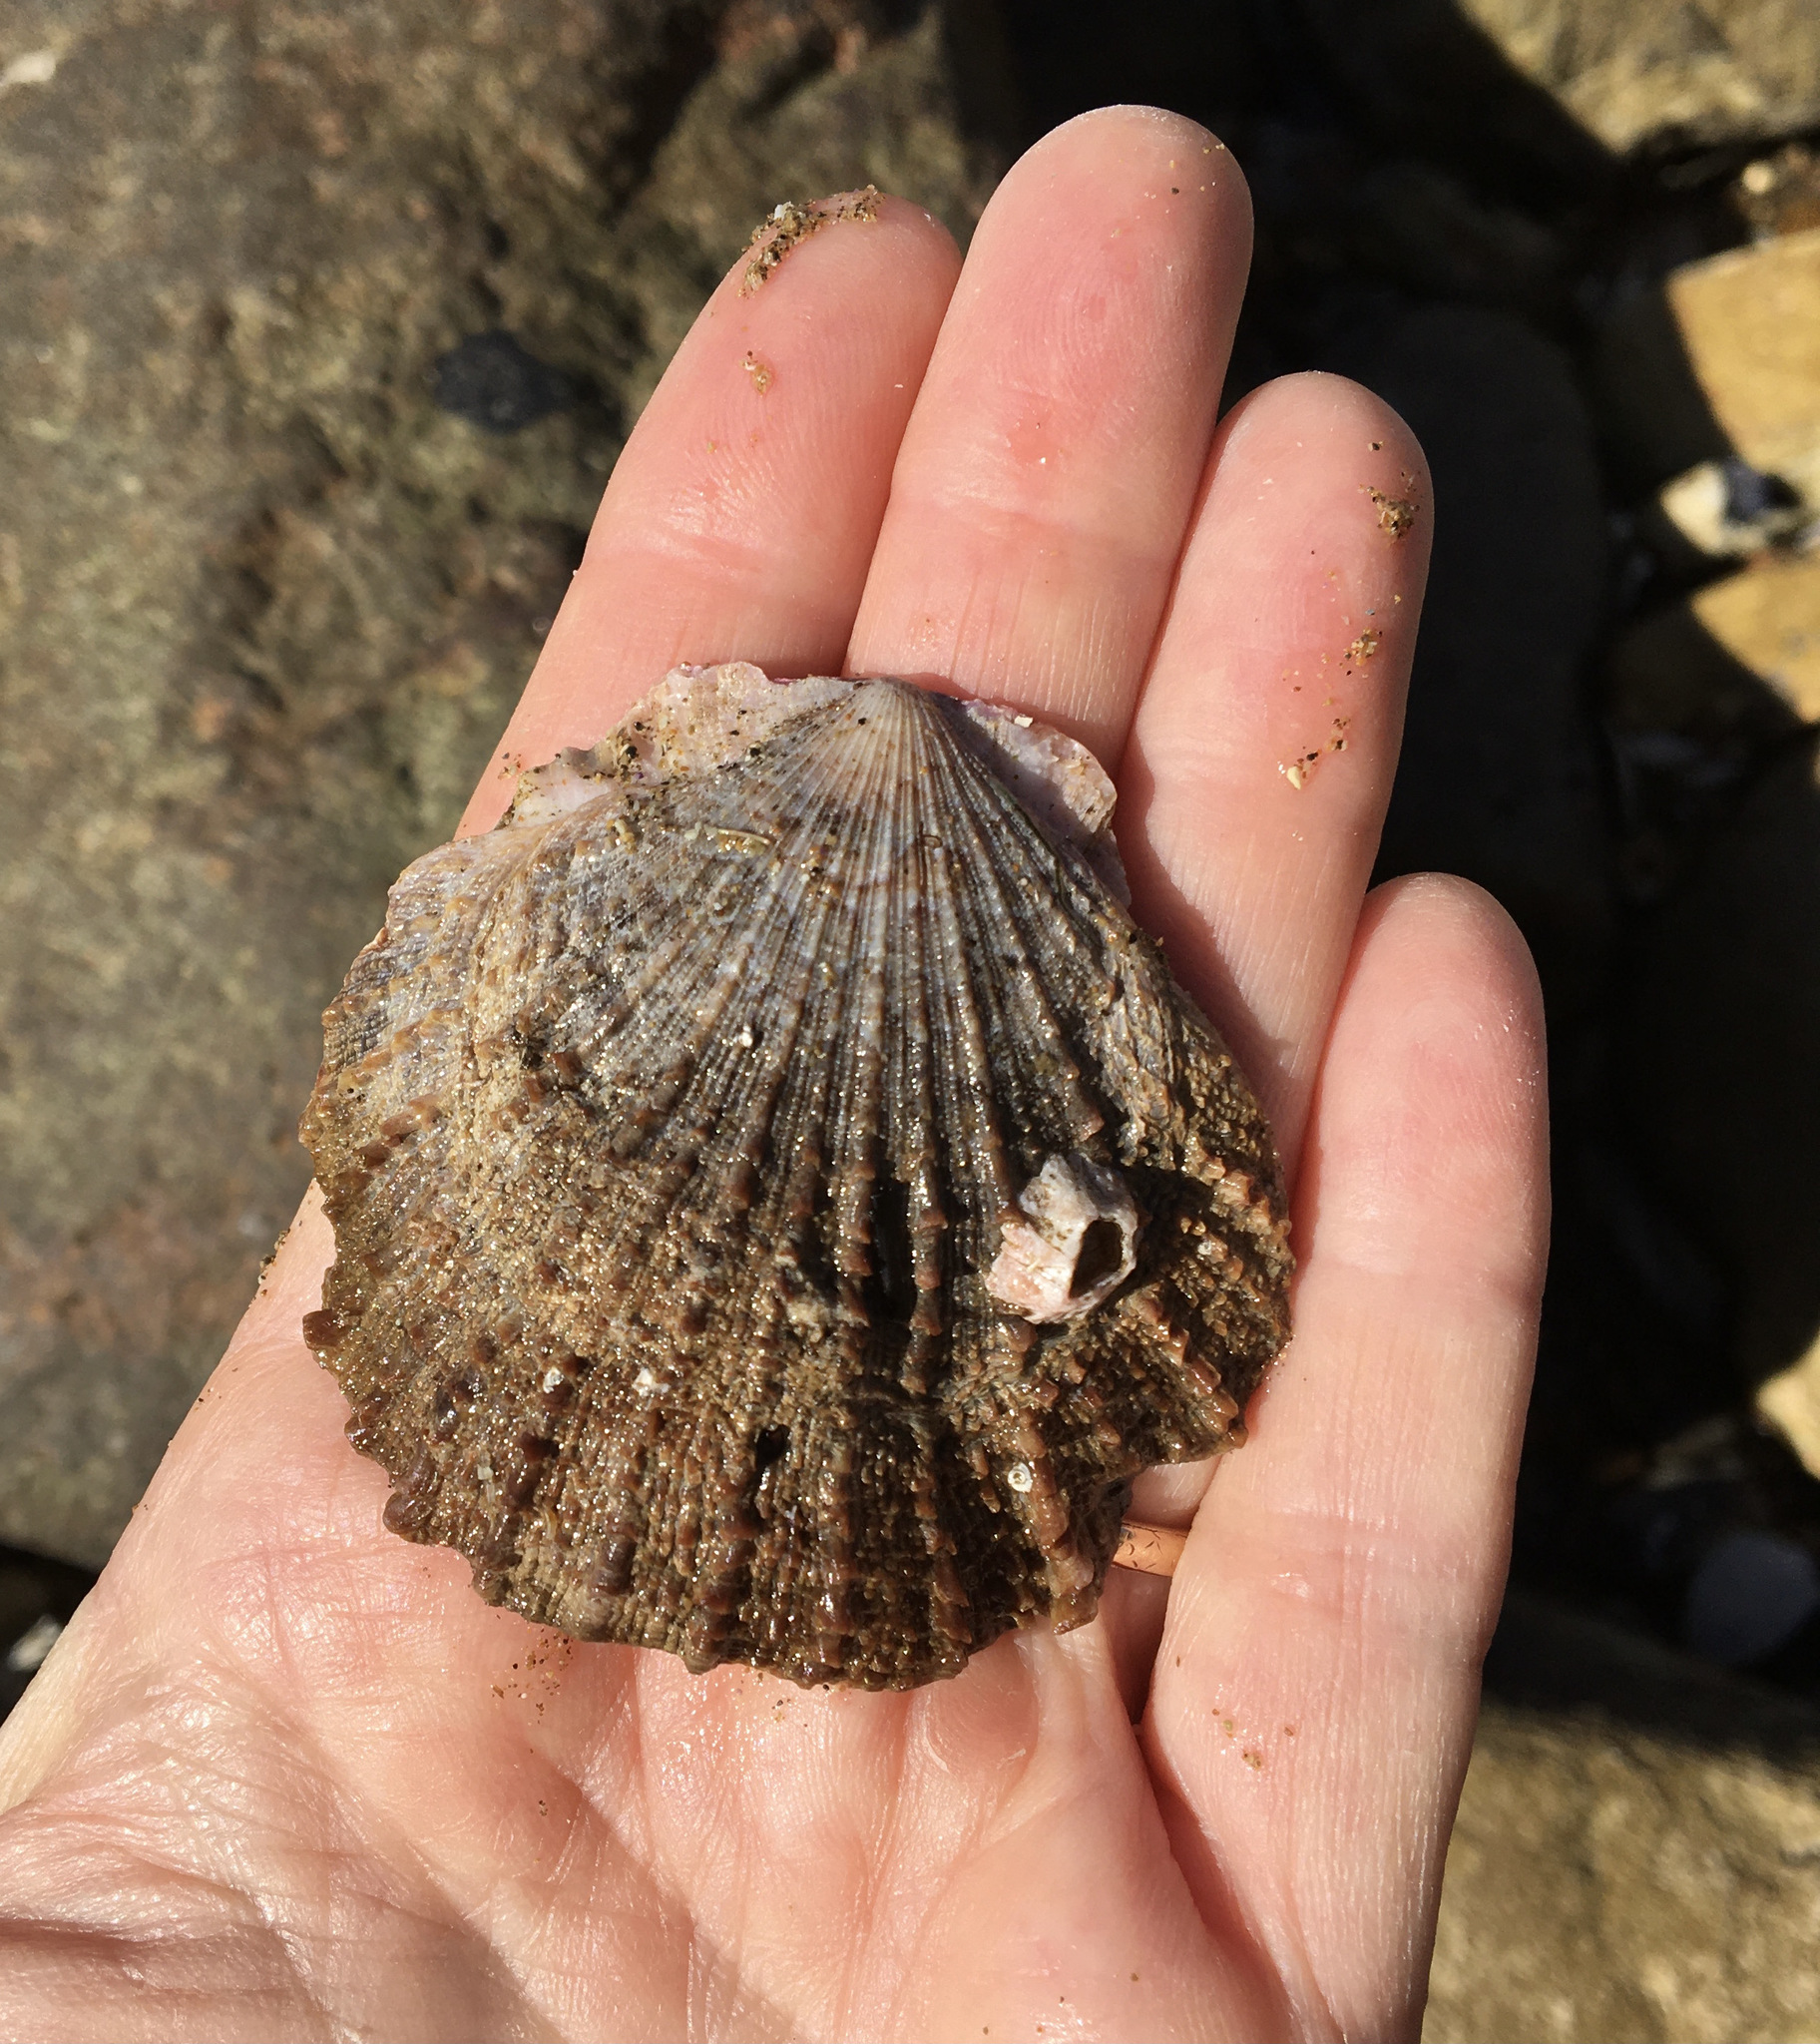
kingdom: Animalia
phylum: Mollusca
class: Bivalvia
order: Pectinida
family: Pectinidae
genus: Crassadoma
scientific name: Crassadoma gigantea
